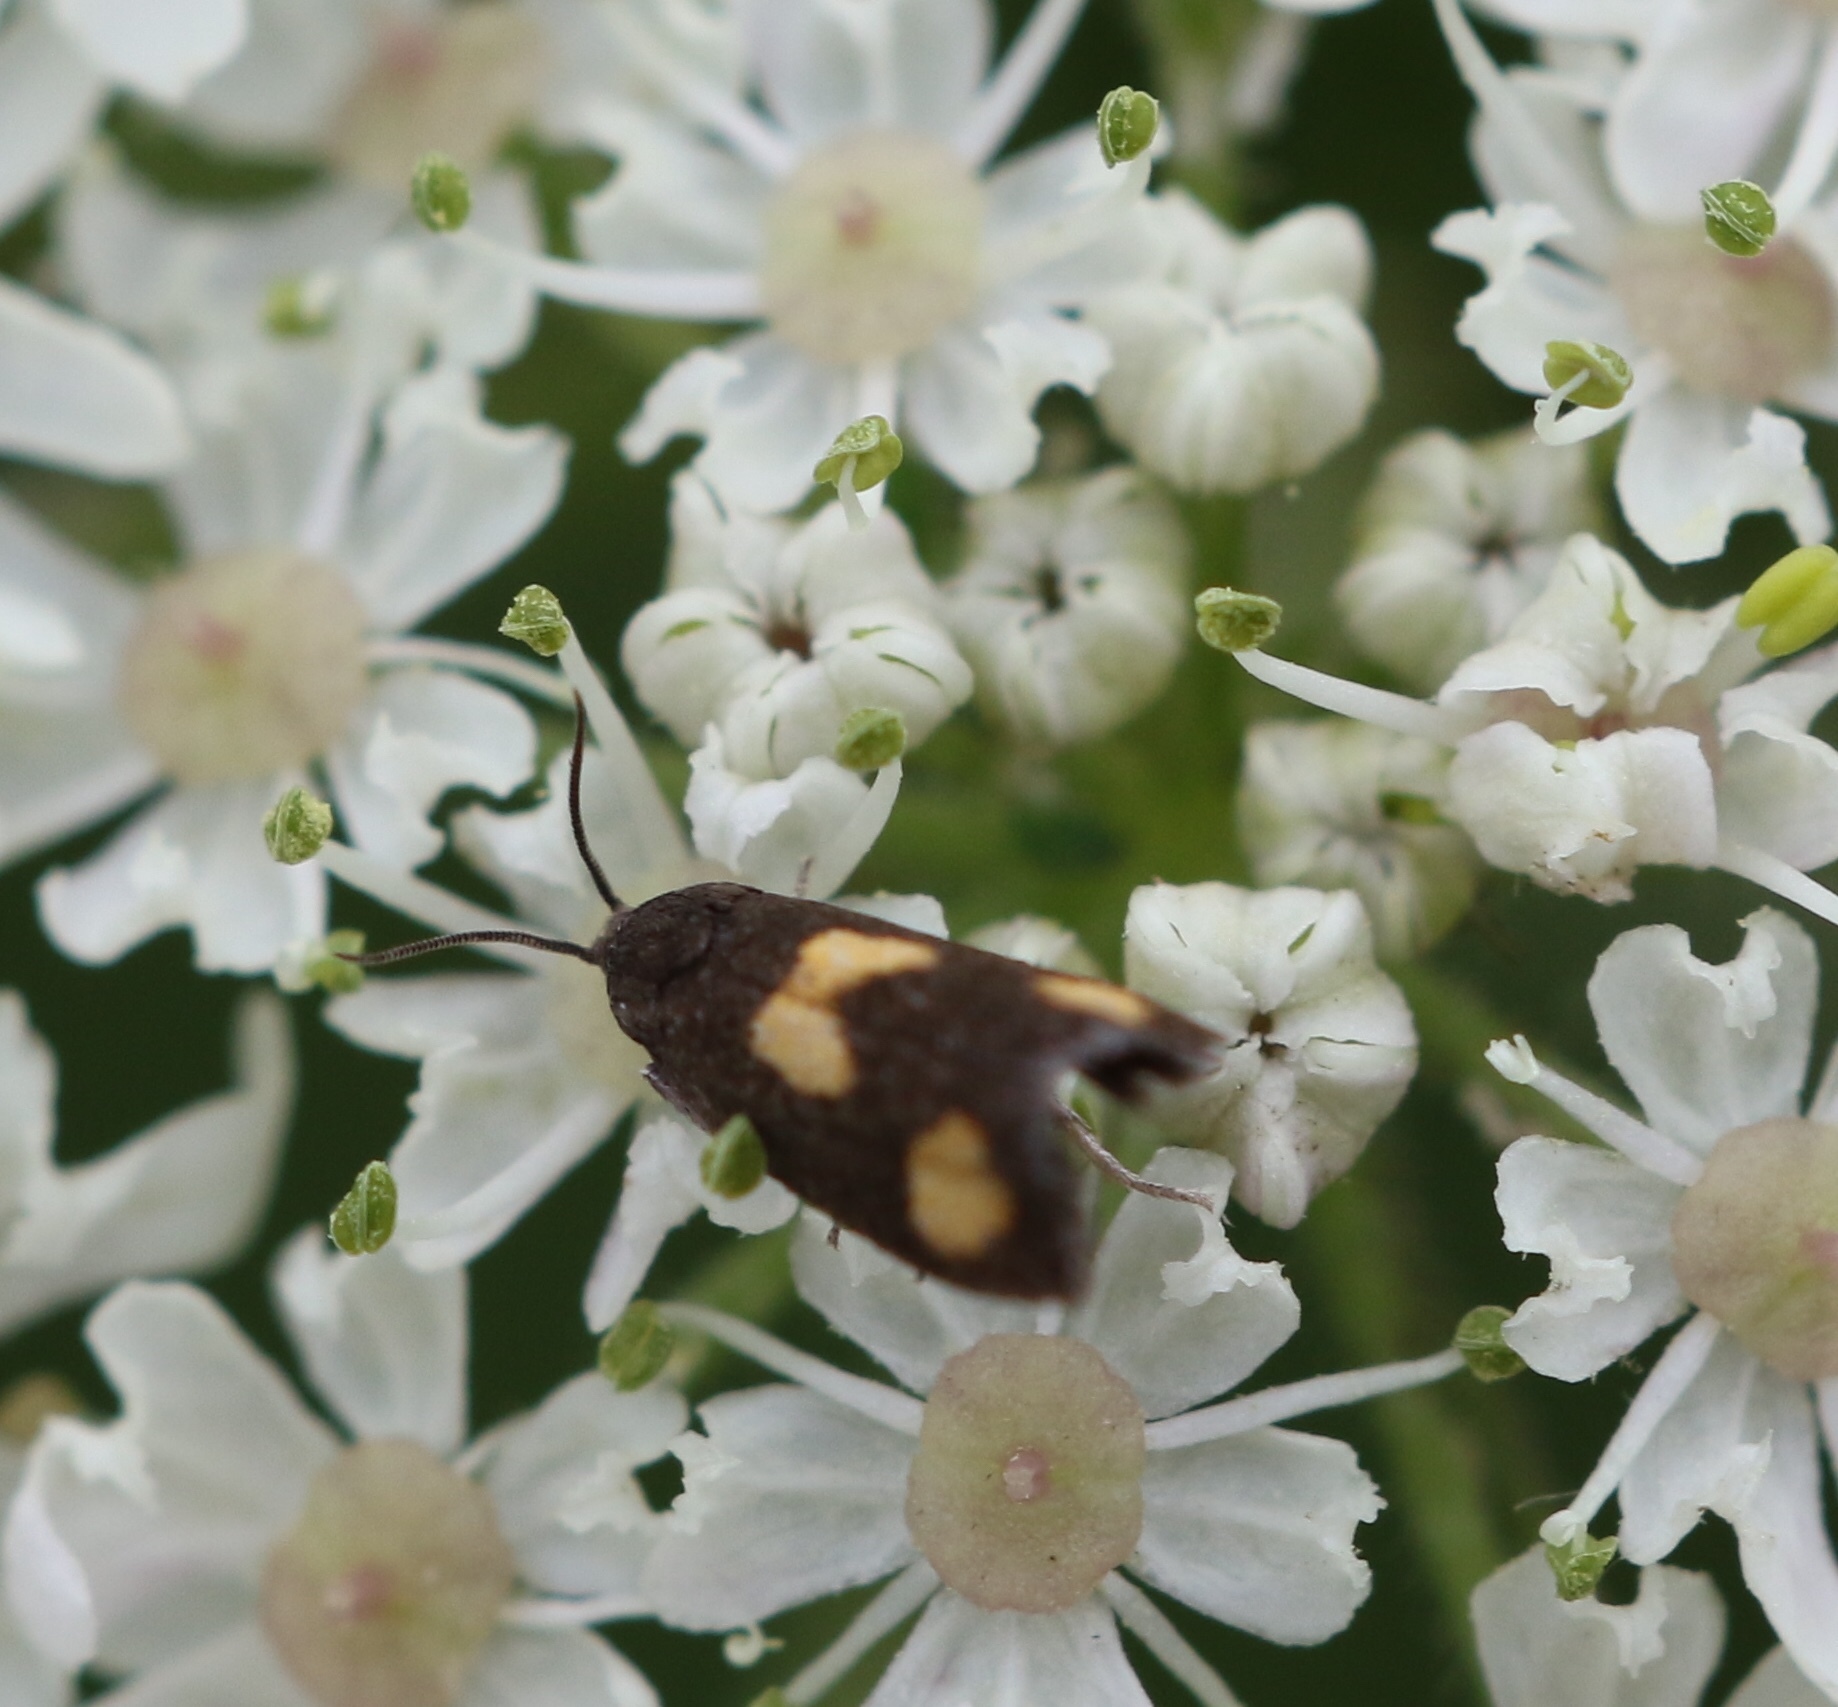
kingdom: Animalia
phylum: Arthropoda
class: Insecta
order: Lepidoptera
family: Tortricidae
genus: Pammene
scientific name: Pammene aurana
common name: Orange-spot piercer
